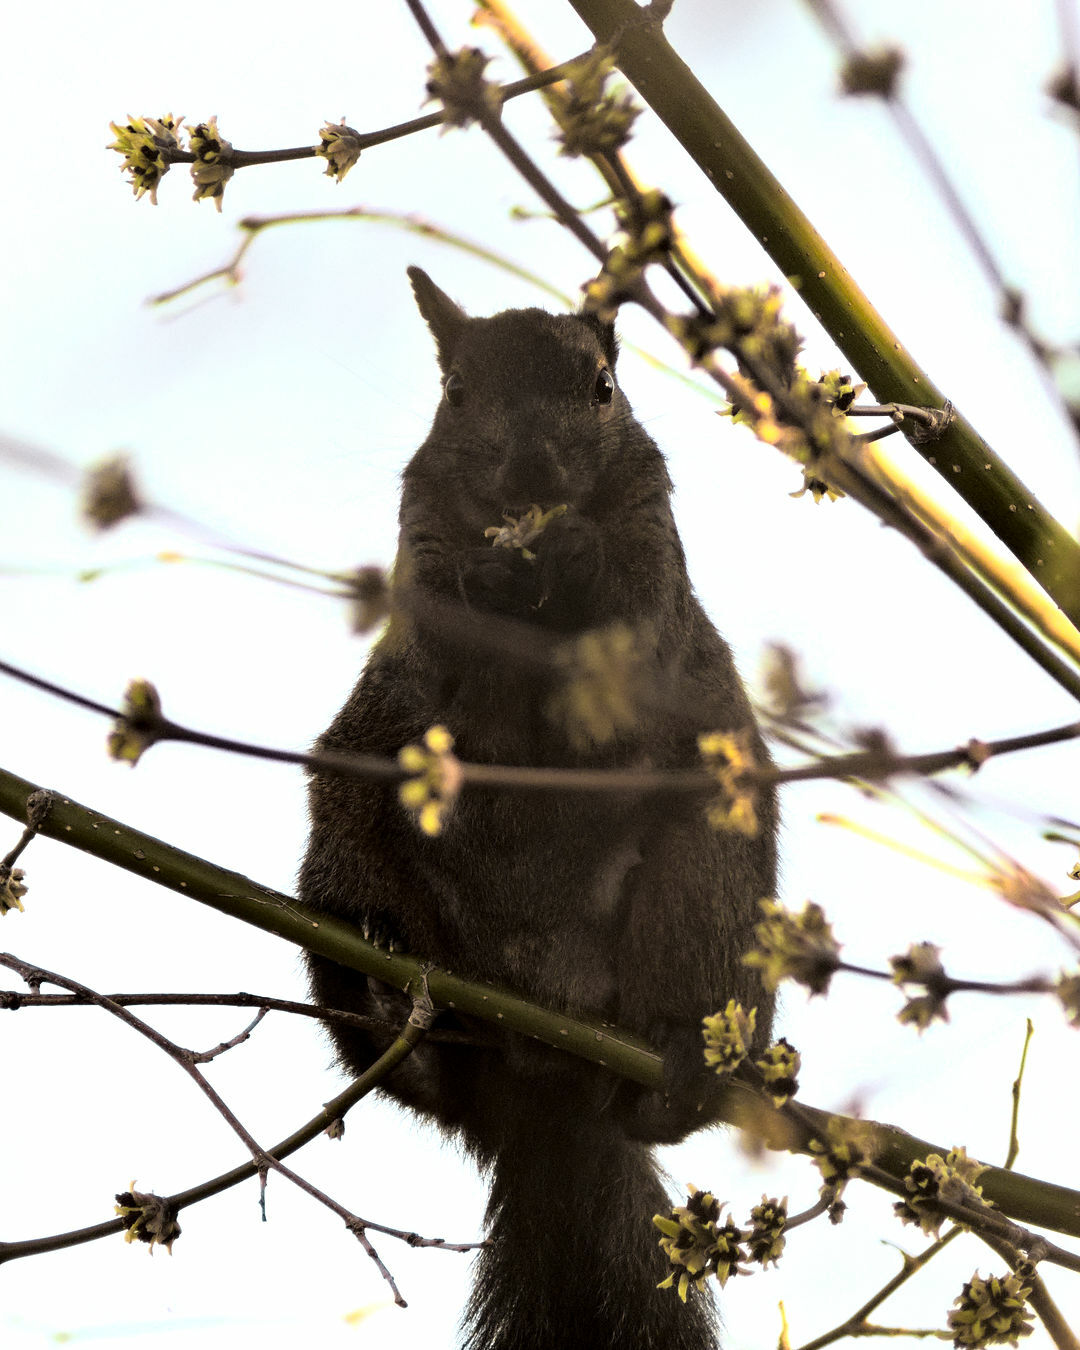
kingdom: Animalia
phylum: Chordata
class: Mammalia
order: Rodentia
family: Sciuridae
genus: Sciurus
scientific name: Sciurus carolinensis
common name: Eastern gray squirrel
